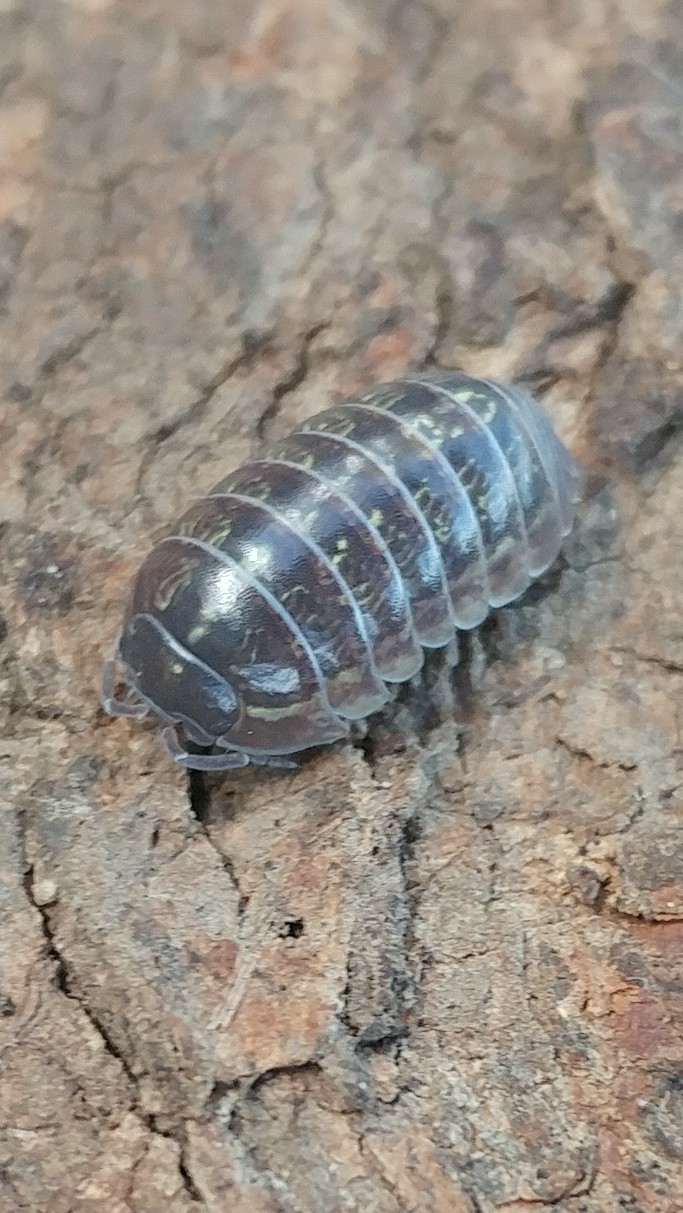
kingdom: Animalia
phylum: Arthropoda
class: Malacostraca
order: Isopoda
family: Armadillidiidae
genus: Armadillidium
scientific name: Armadillidium vulgare
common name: Common pill woodlouse
